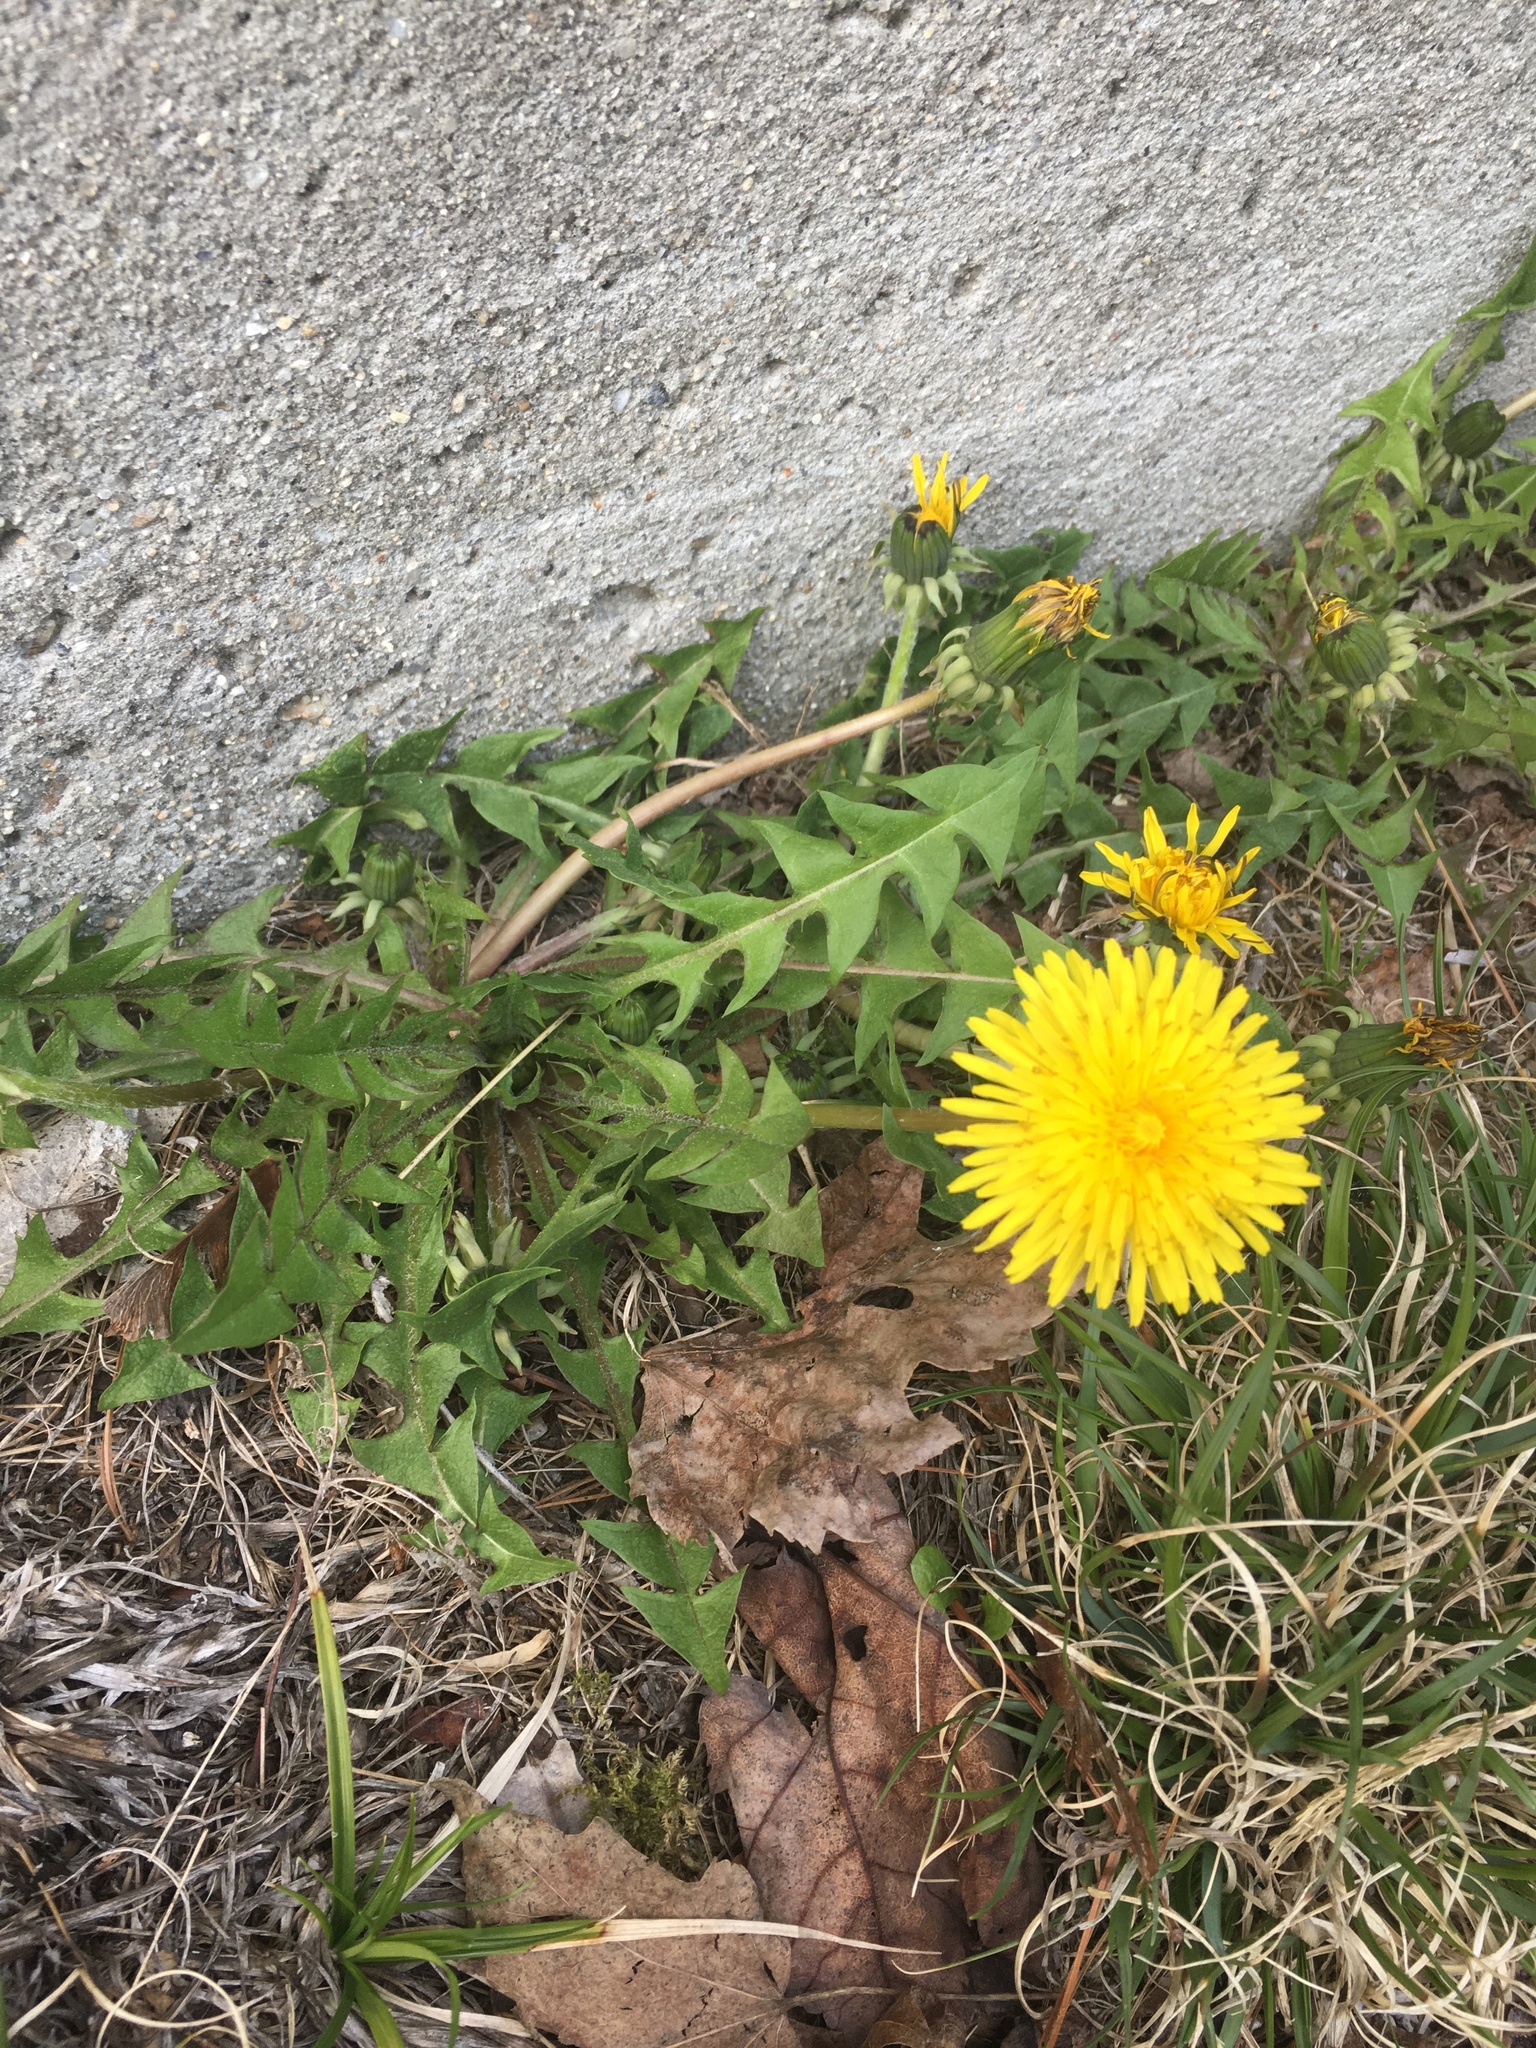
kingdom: Plantae
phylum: Tracheophyta
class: Magnoliopsida
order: Asterales
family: Asteraceae
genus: Taraxacum
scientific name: Taraxacum officinale
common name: Common dandelion
